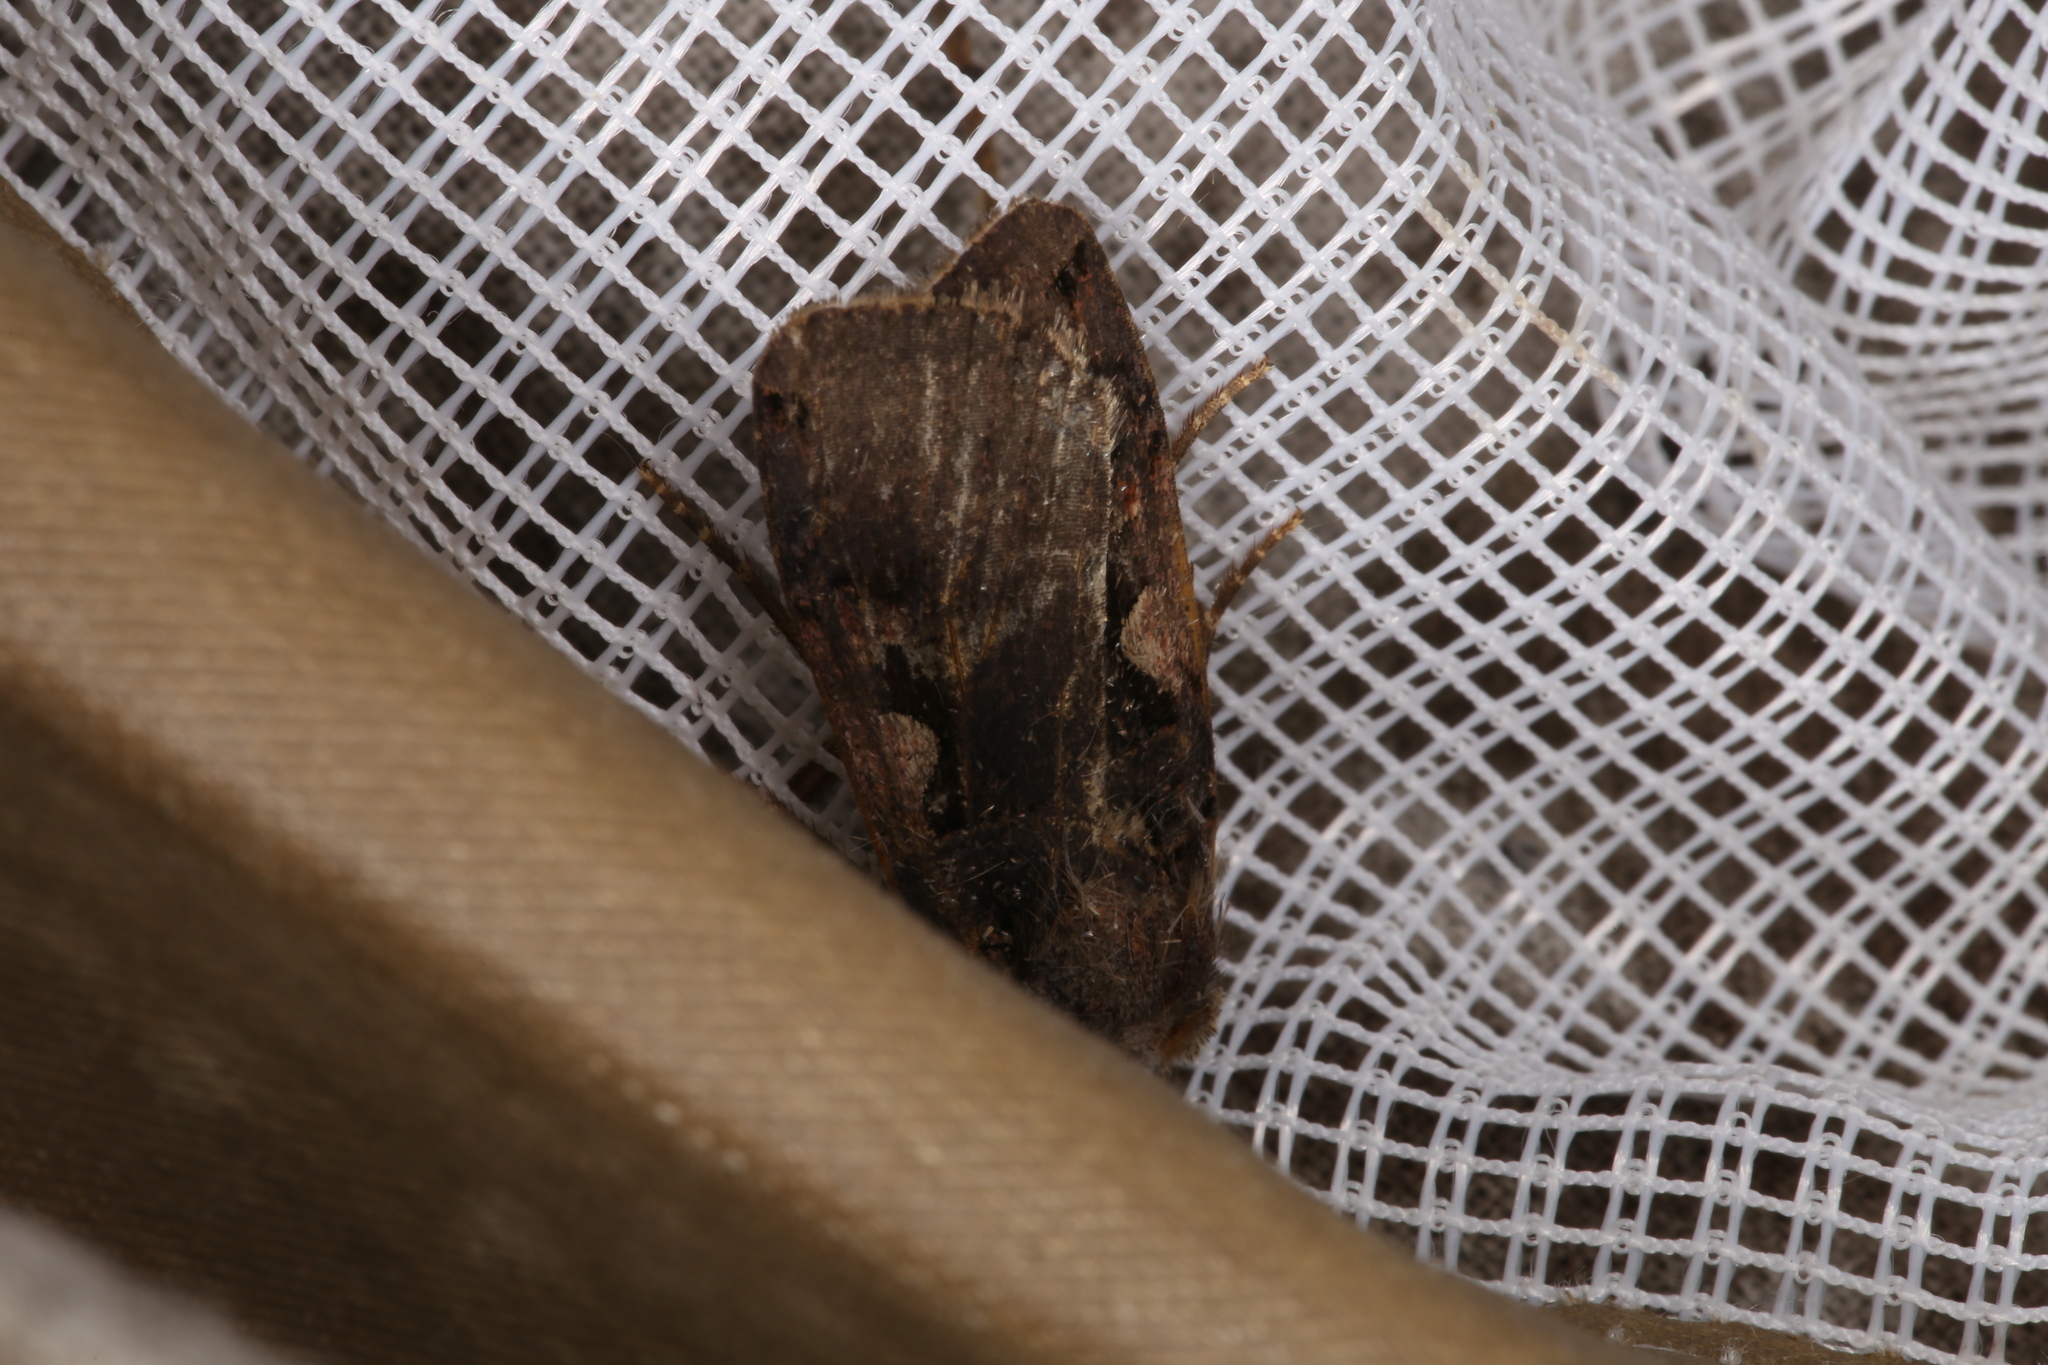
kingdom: Animalia
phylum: Arthropoda
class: Insecta
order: Lepidoptera
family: Noctuidae
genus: Xestia
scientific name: Xestia c-nigrum
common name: Setaceous hebrew character
